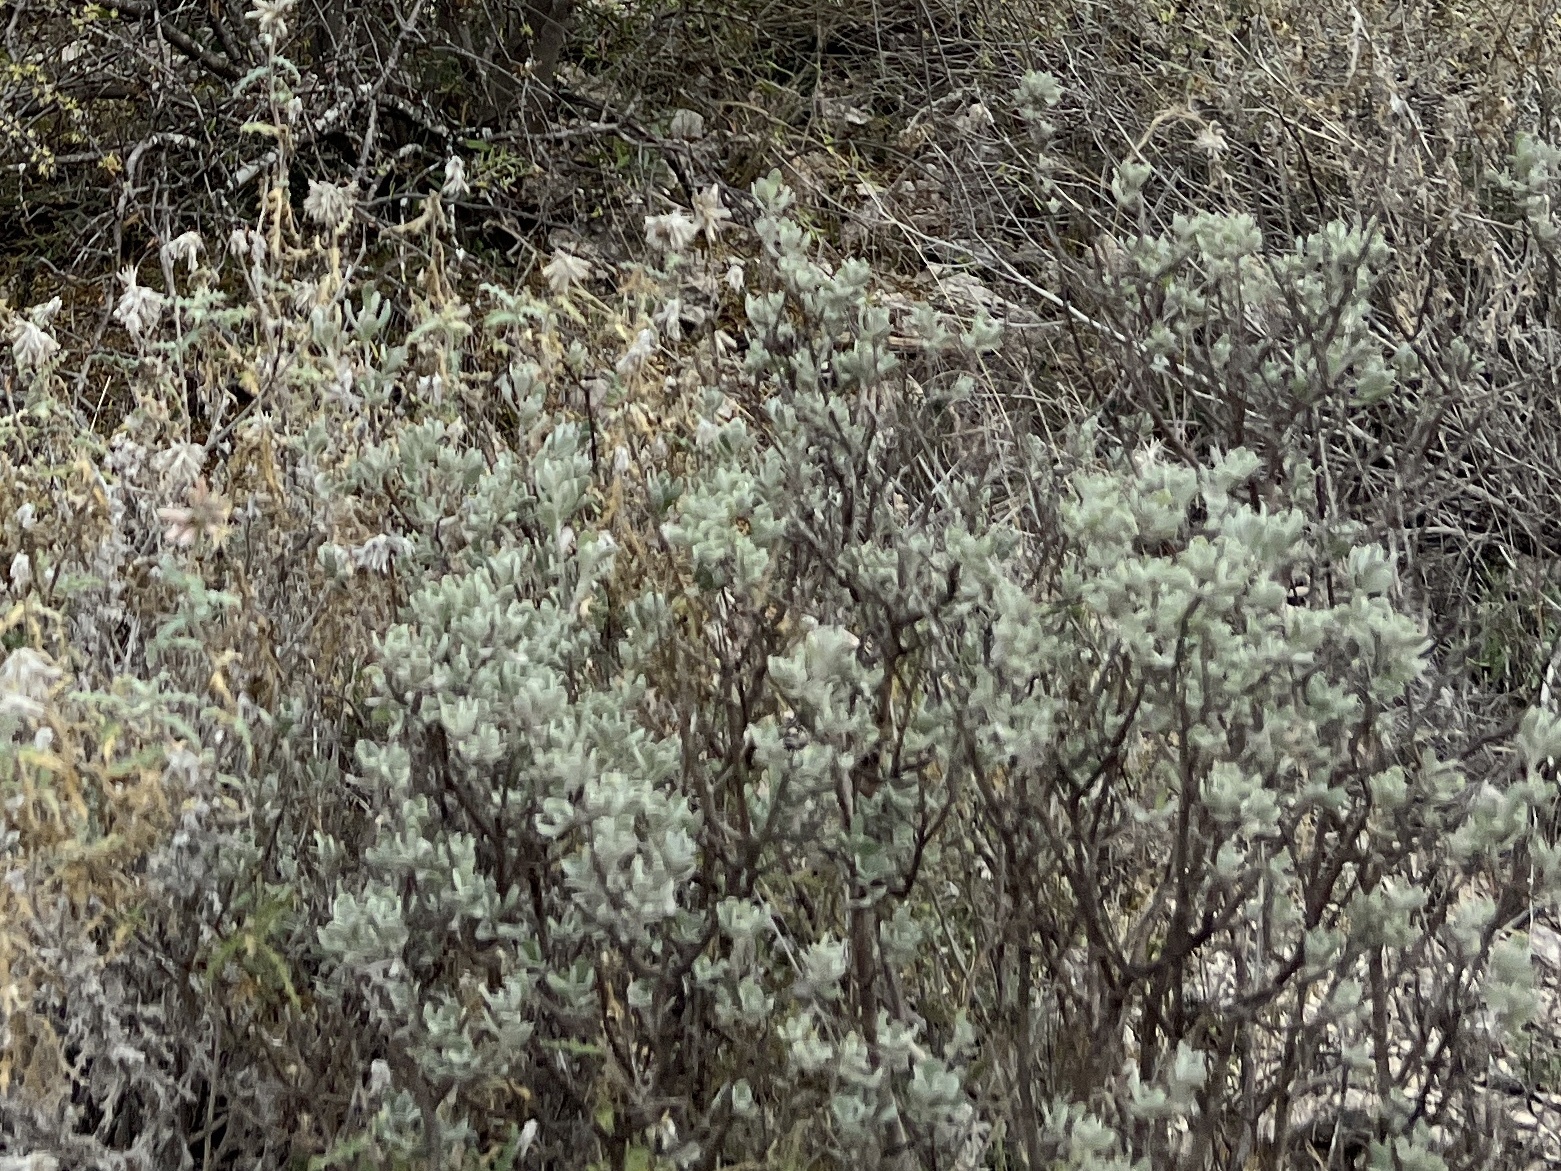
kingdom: Plantae
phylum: Tracheophyta
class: Magnoliopsida
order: Lamiales
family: Scrophulariaceae
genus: Leucophyllum
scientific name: Leucophyllum frutescens
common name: Texas silverleaf
